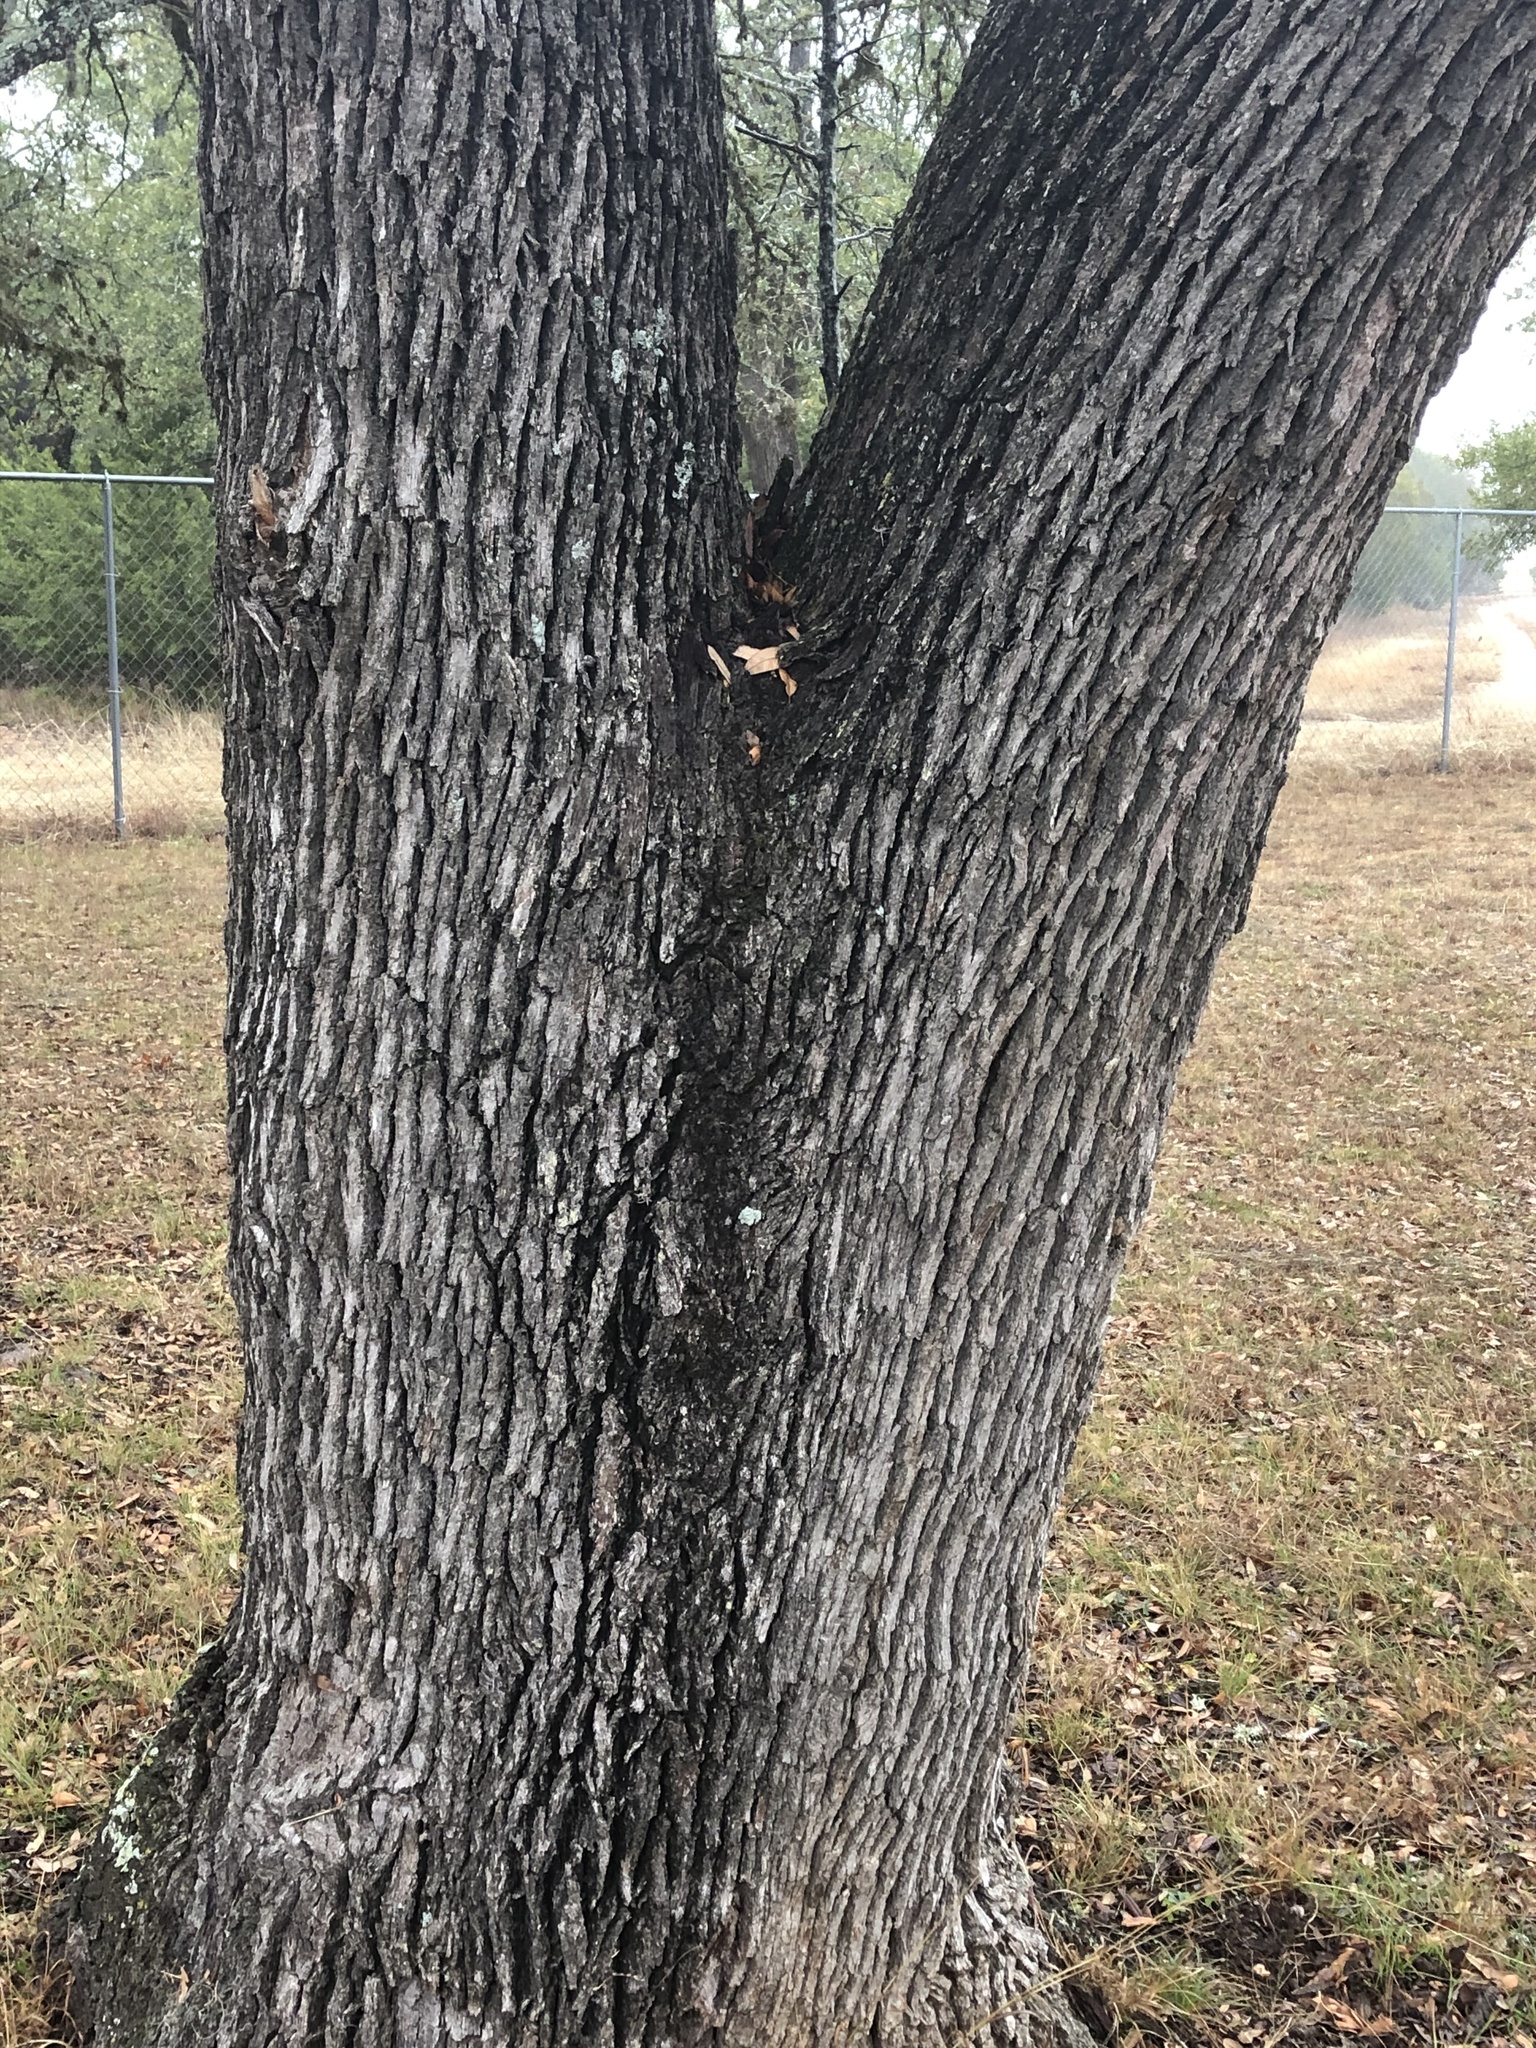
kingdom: Plantae
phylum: Tracheophyta
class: Magnoliopsida
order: Fagales
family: Fagaceae
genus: Quercus
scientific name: Quercus fusiformis
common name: Texas live oak
